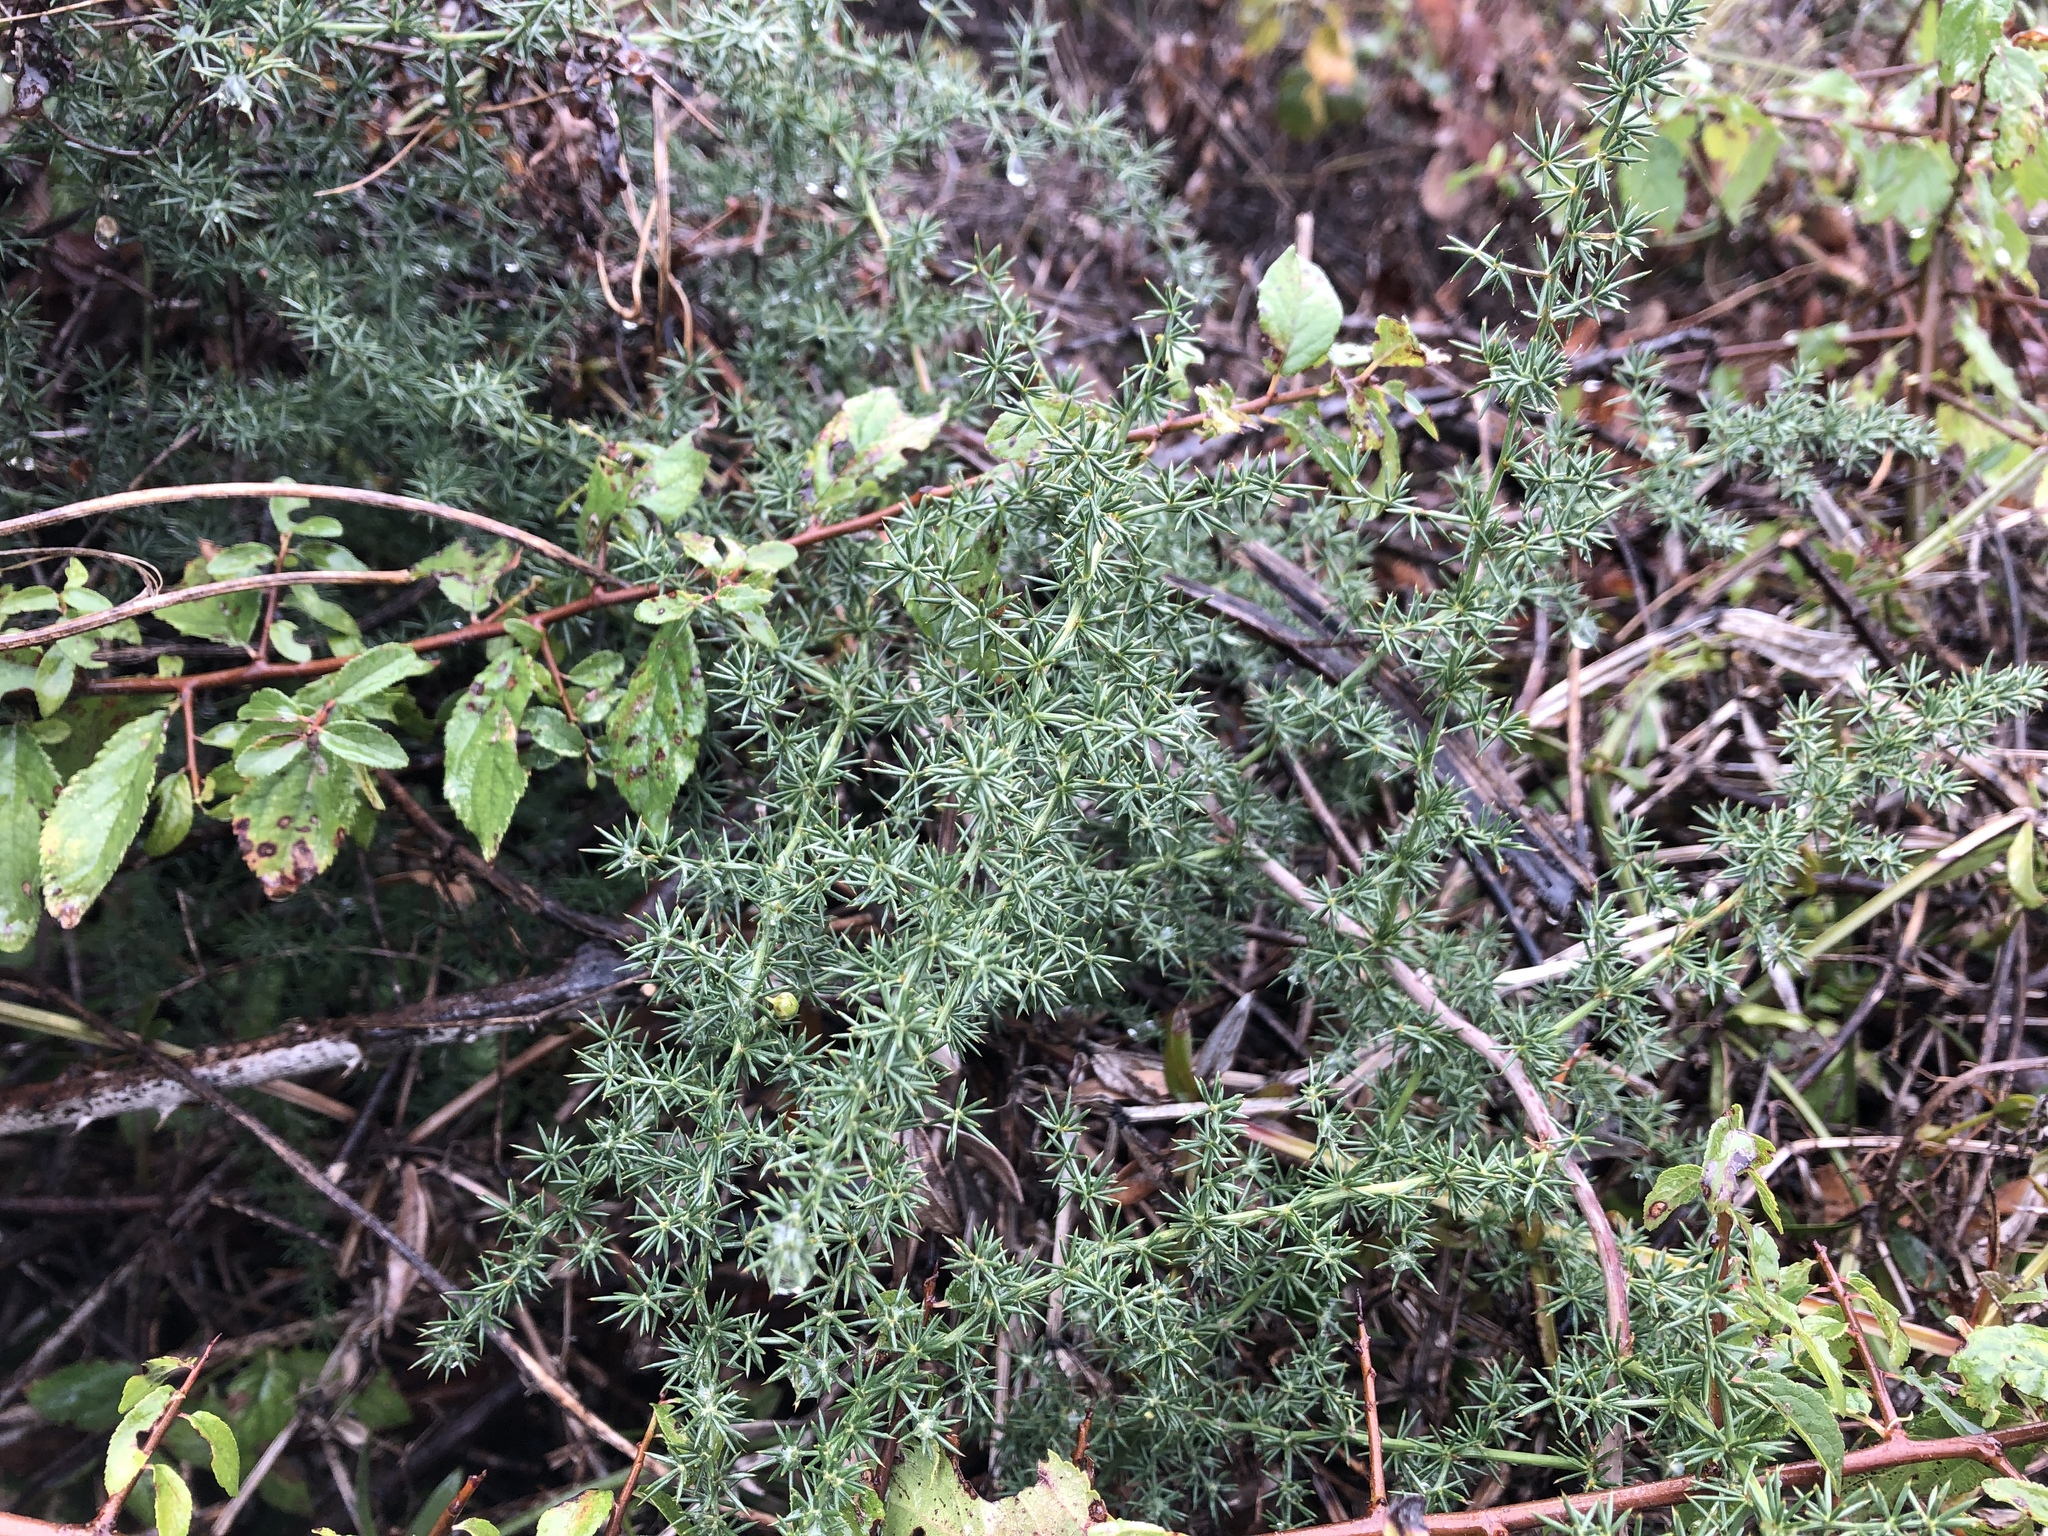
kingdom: Plantae
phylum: Tracheophyta
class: Liliopsida
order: Asparagales
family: Asparagaceae
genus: Asparagus
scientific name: Asparagus acutifolius
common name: Wild asparagus
